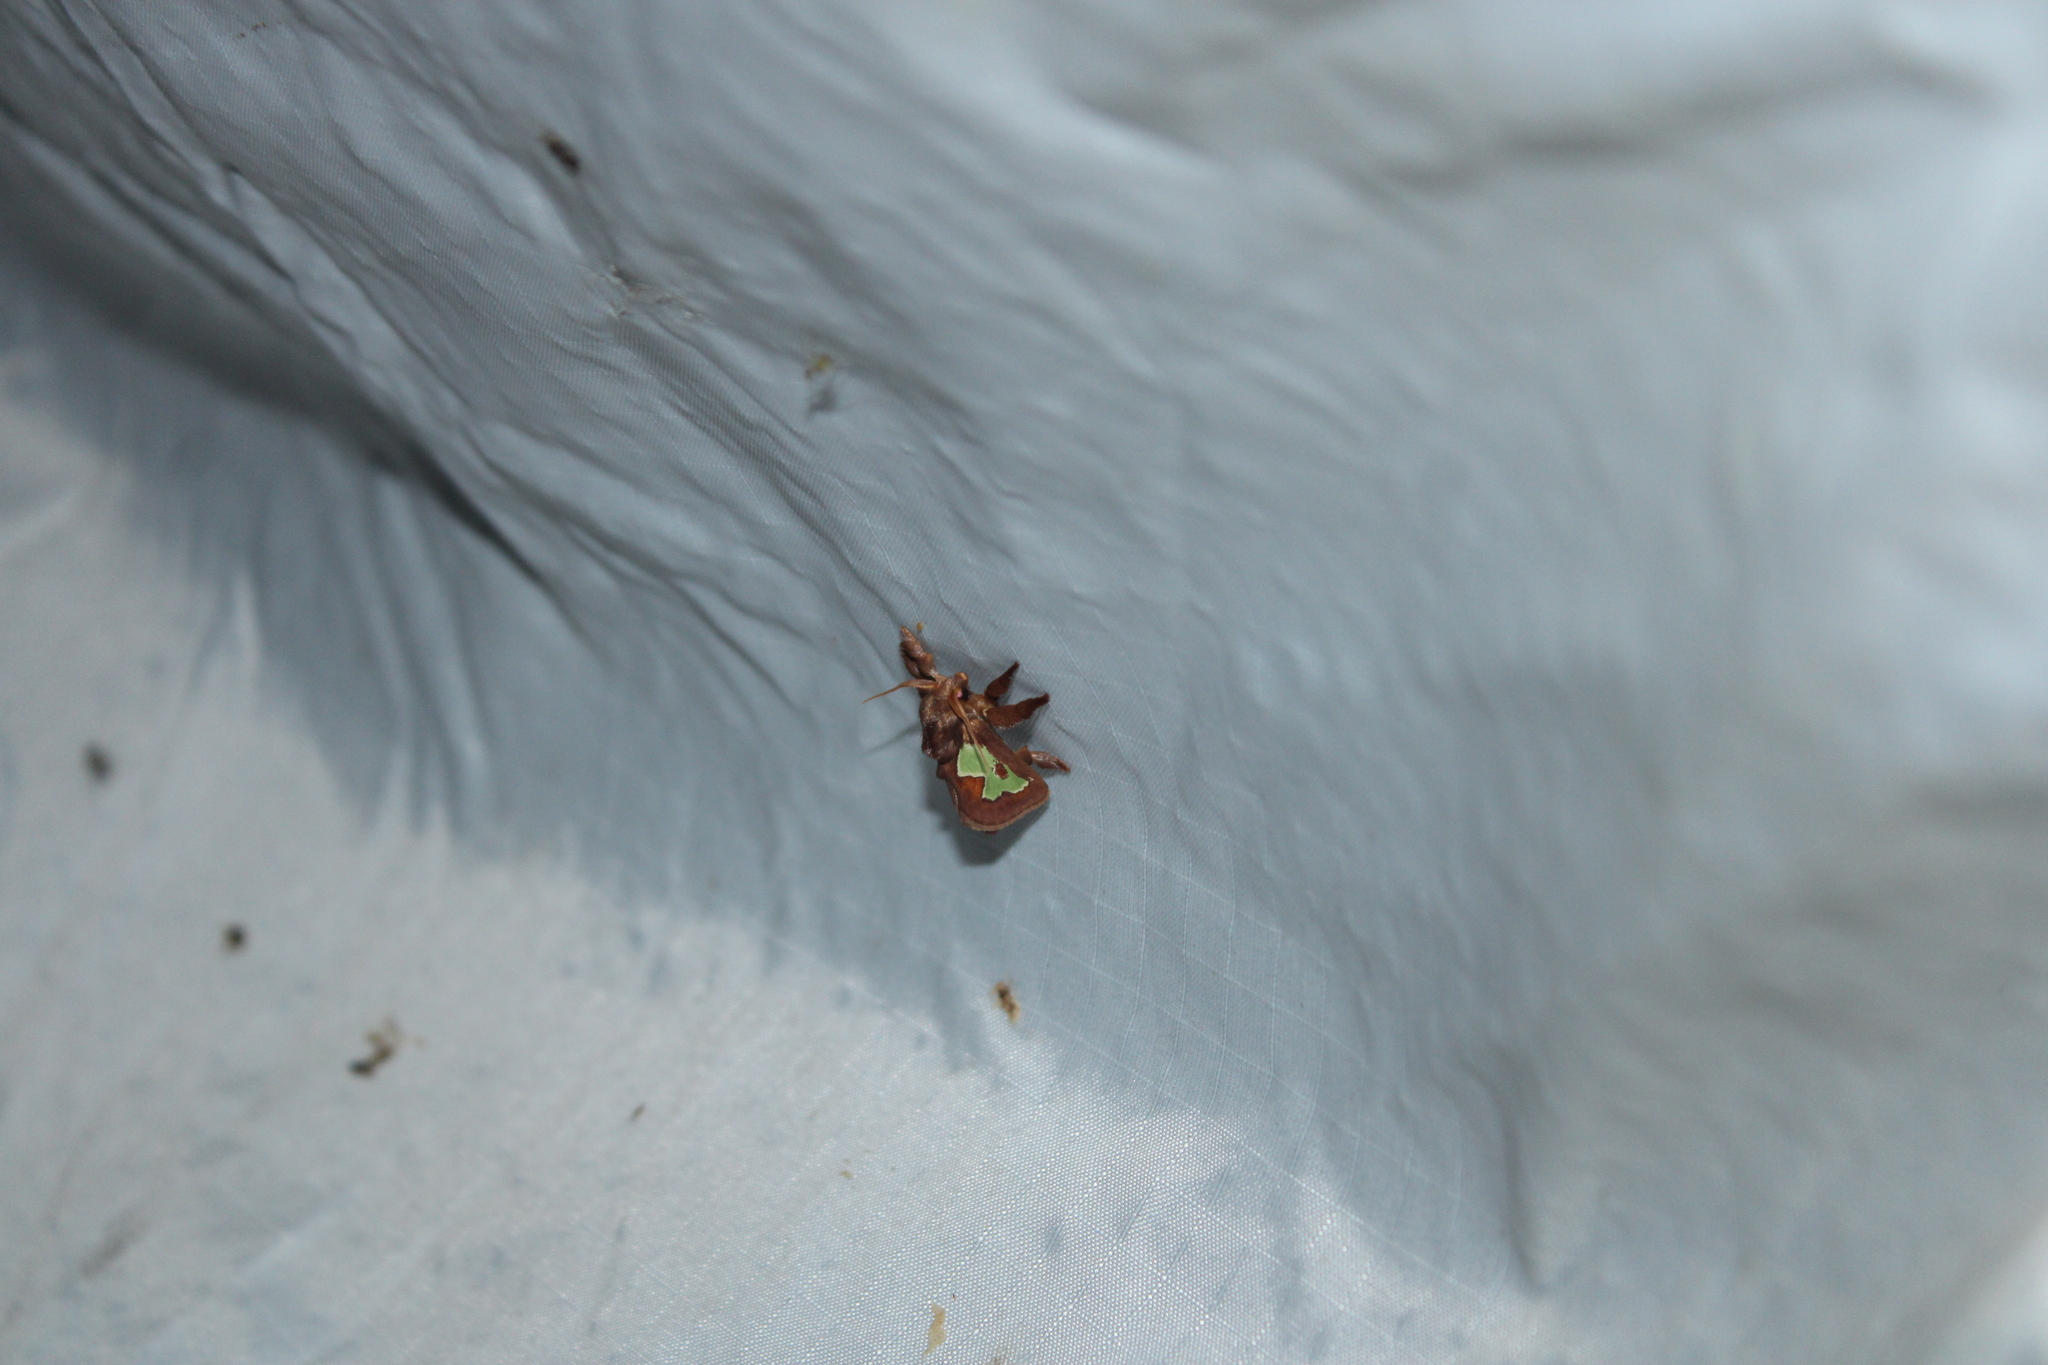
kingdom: Animalia
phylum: Arthropoda
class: Insecta
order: Lepidoptera
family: Limacodidae
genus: Euclea
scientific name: Euclea delphinii
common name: Spiny oak-slug moth
